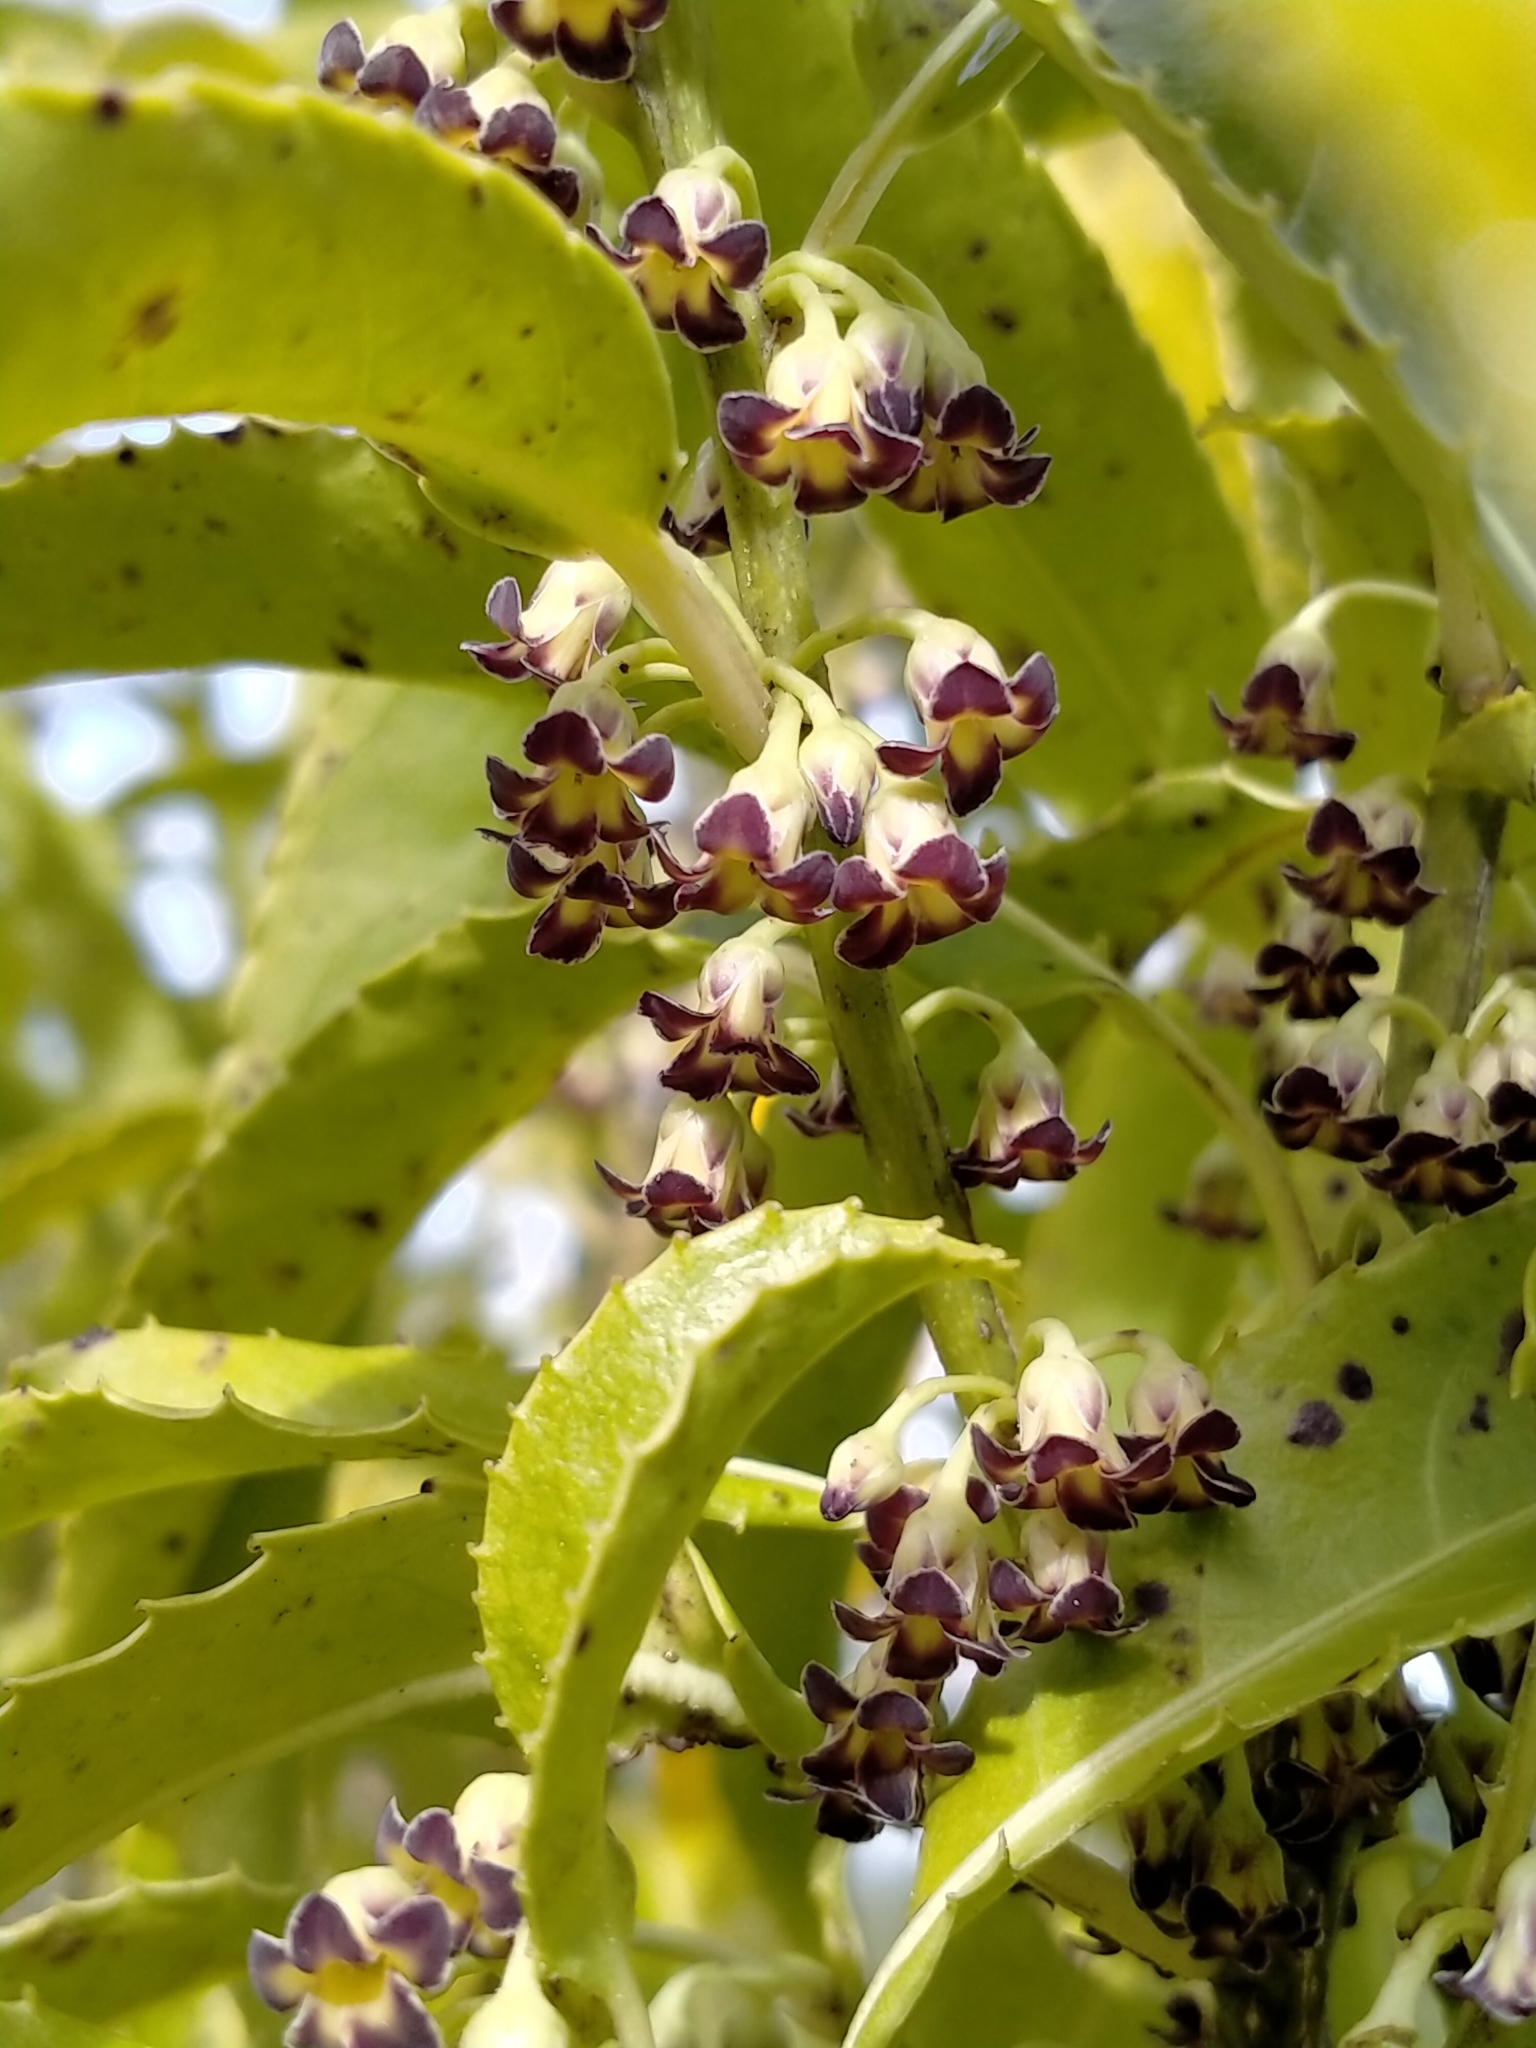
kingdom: Plantae
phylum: Tracheophyta
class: Magnoliopsida
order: Malpighiales
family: Violaceae
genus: Melicytus
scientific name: Melicytus lanceolatus
